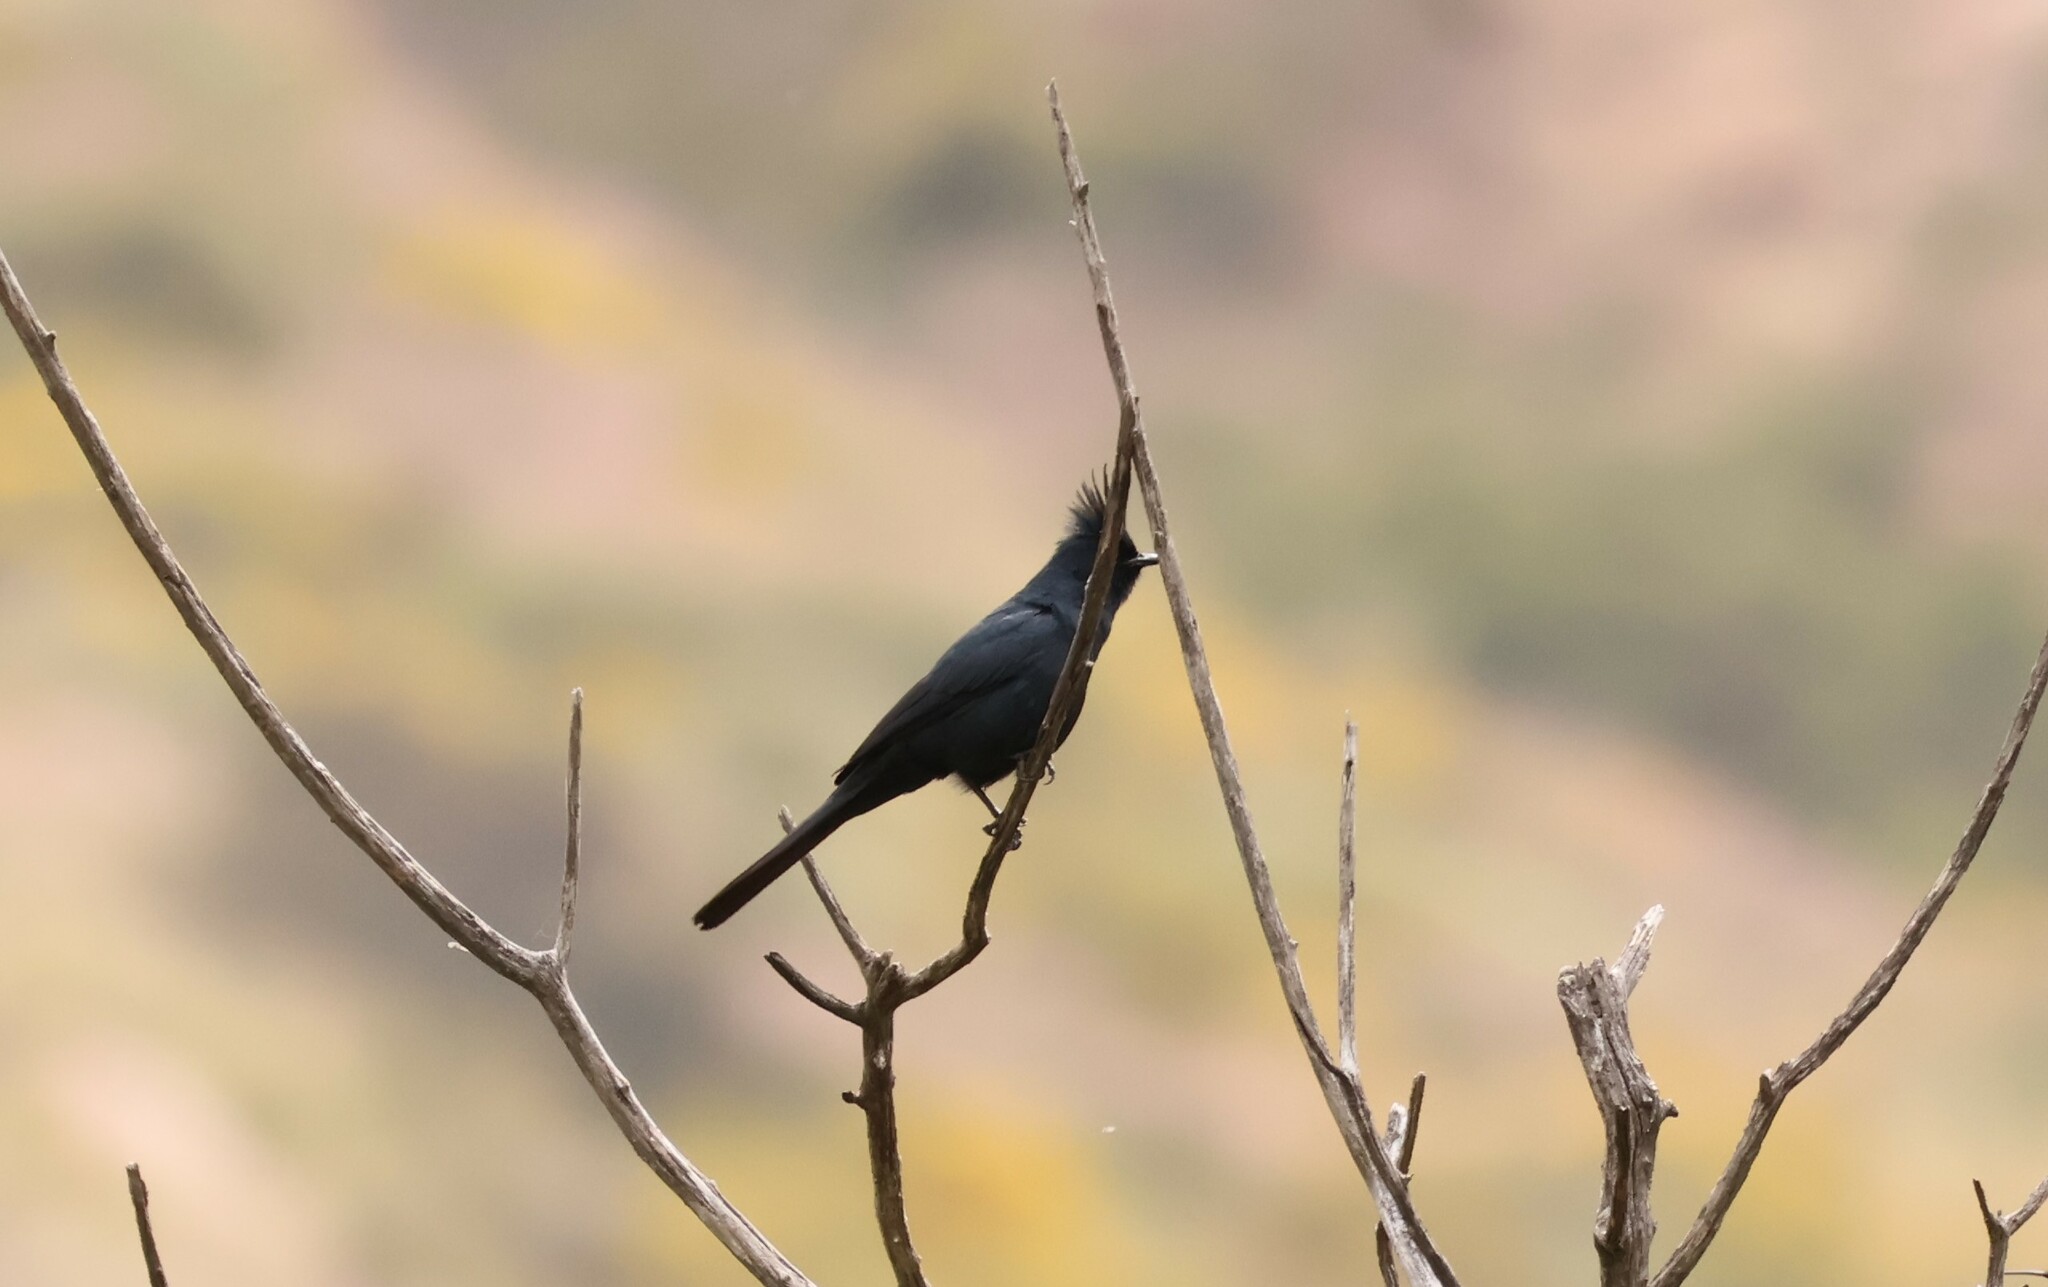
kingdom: Animalia
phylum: Chordata
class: Aves
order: Passeriformes
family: Ptilogonatidae
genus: Phainopepla
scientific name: Phainopepla nitens
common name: Phainopepla
